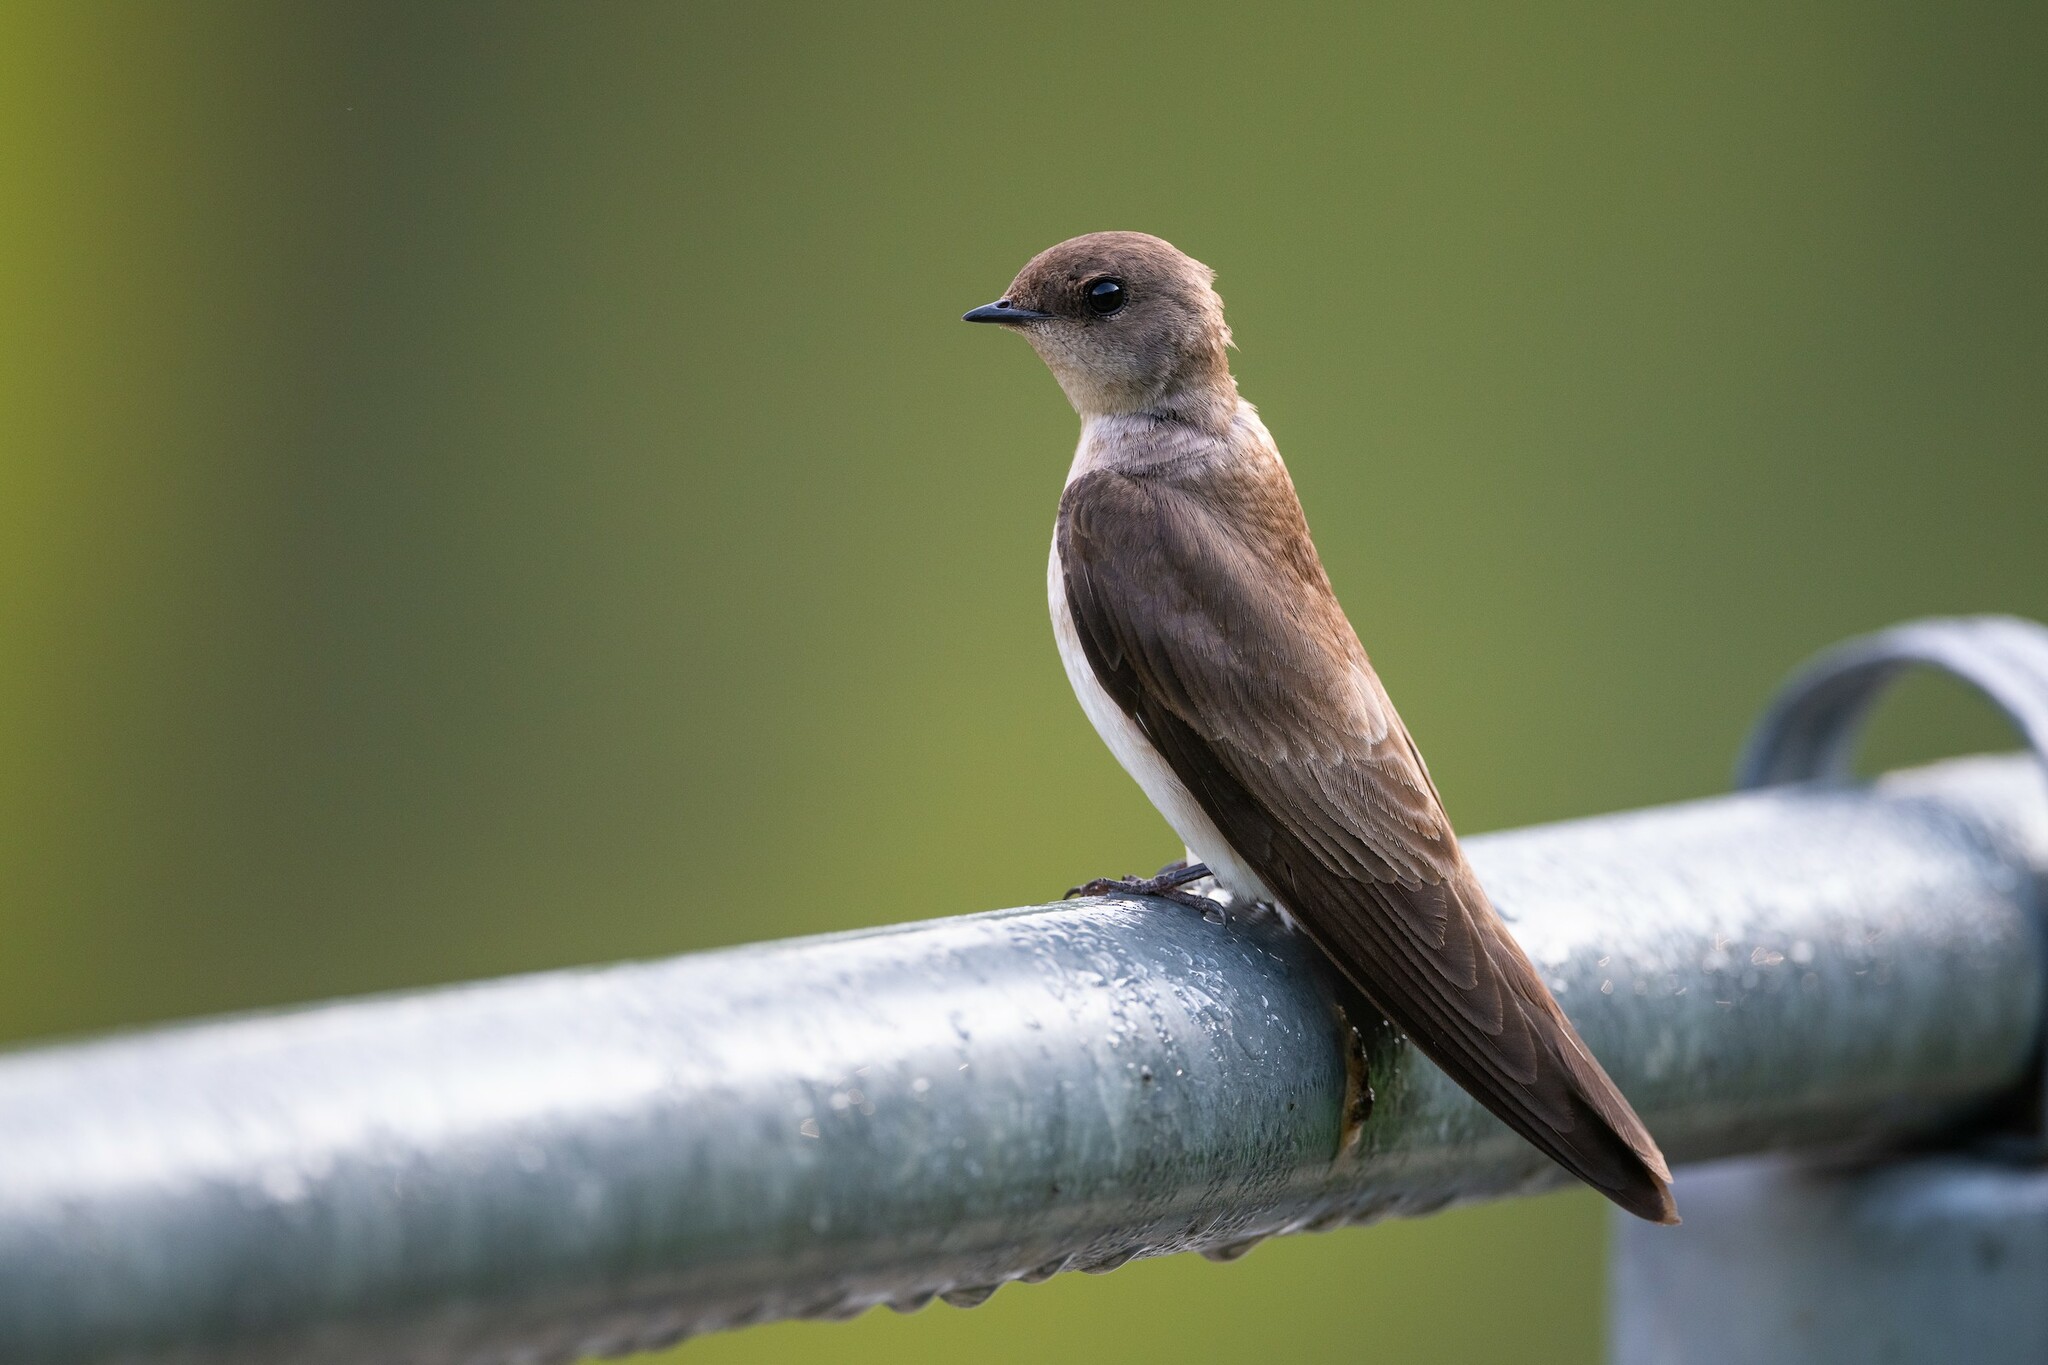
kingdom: Animalia
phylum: Chordata
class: Aves
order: Passeriformes
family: Hirundinidae
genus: Stelgidopteryx
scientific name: Stelgidopteryx serripennis
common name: Northern rough-winged swallow
